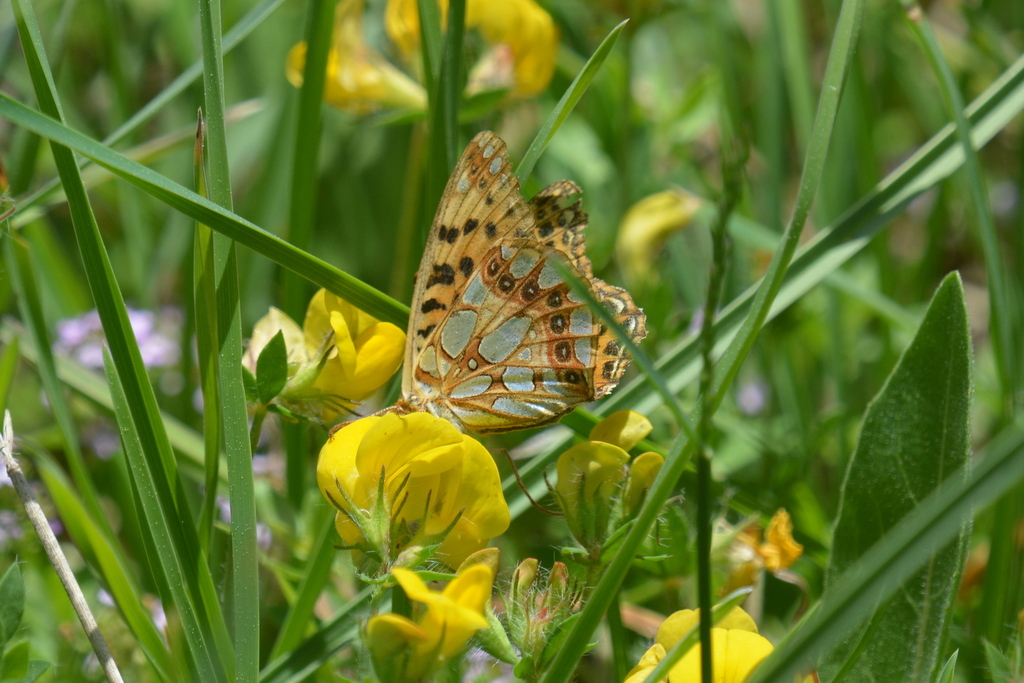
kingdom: Animalia
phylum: Arthropoda
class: Insecta
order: Lepidoptera
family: Nymphalidae
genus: Issoria
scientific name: Issoria lathonia
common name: Queen of spain fritillary
